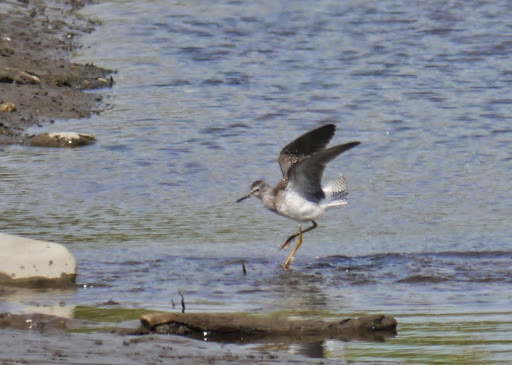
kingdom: Animalia
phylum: Chordata
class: Aves
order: Charadriiformes
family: Scolopacidae
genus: Tringa
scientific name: Tringa flavipes
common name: Lesser yellowlegs
